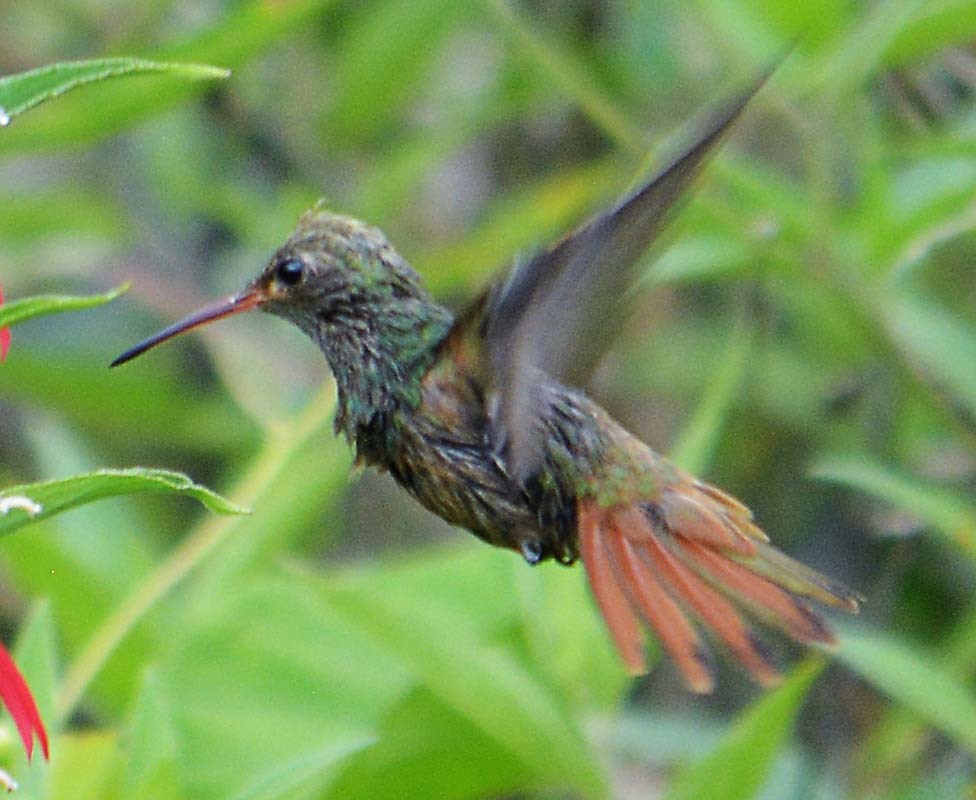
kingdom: Animalia
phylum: Chordata
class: Aves
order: Apodiformes
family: Trochilidae
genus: Amazilia
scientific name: Amazilia yucatanensis
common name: Buff-bellied hummingbird
